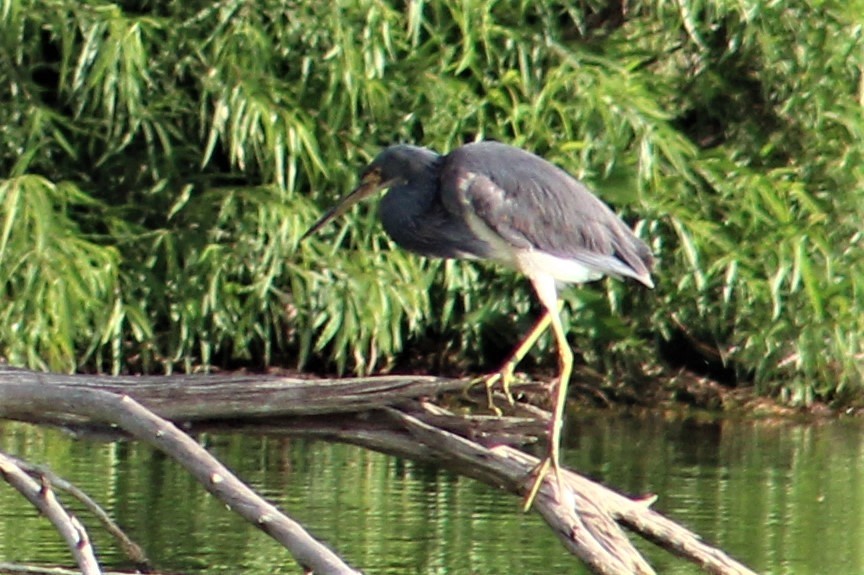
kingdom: Animalia
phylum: Chordata
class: Aves
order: Pelecaniformes
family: Ardeidae
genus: Egretta
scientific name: Egretta tricolor
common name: Tricolored heron
